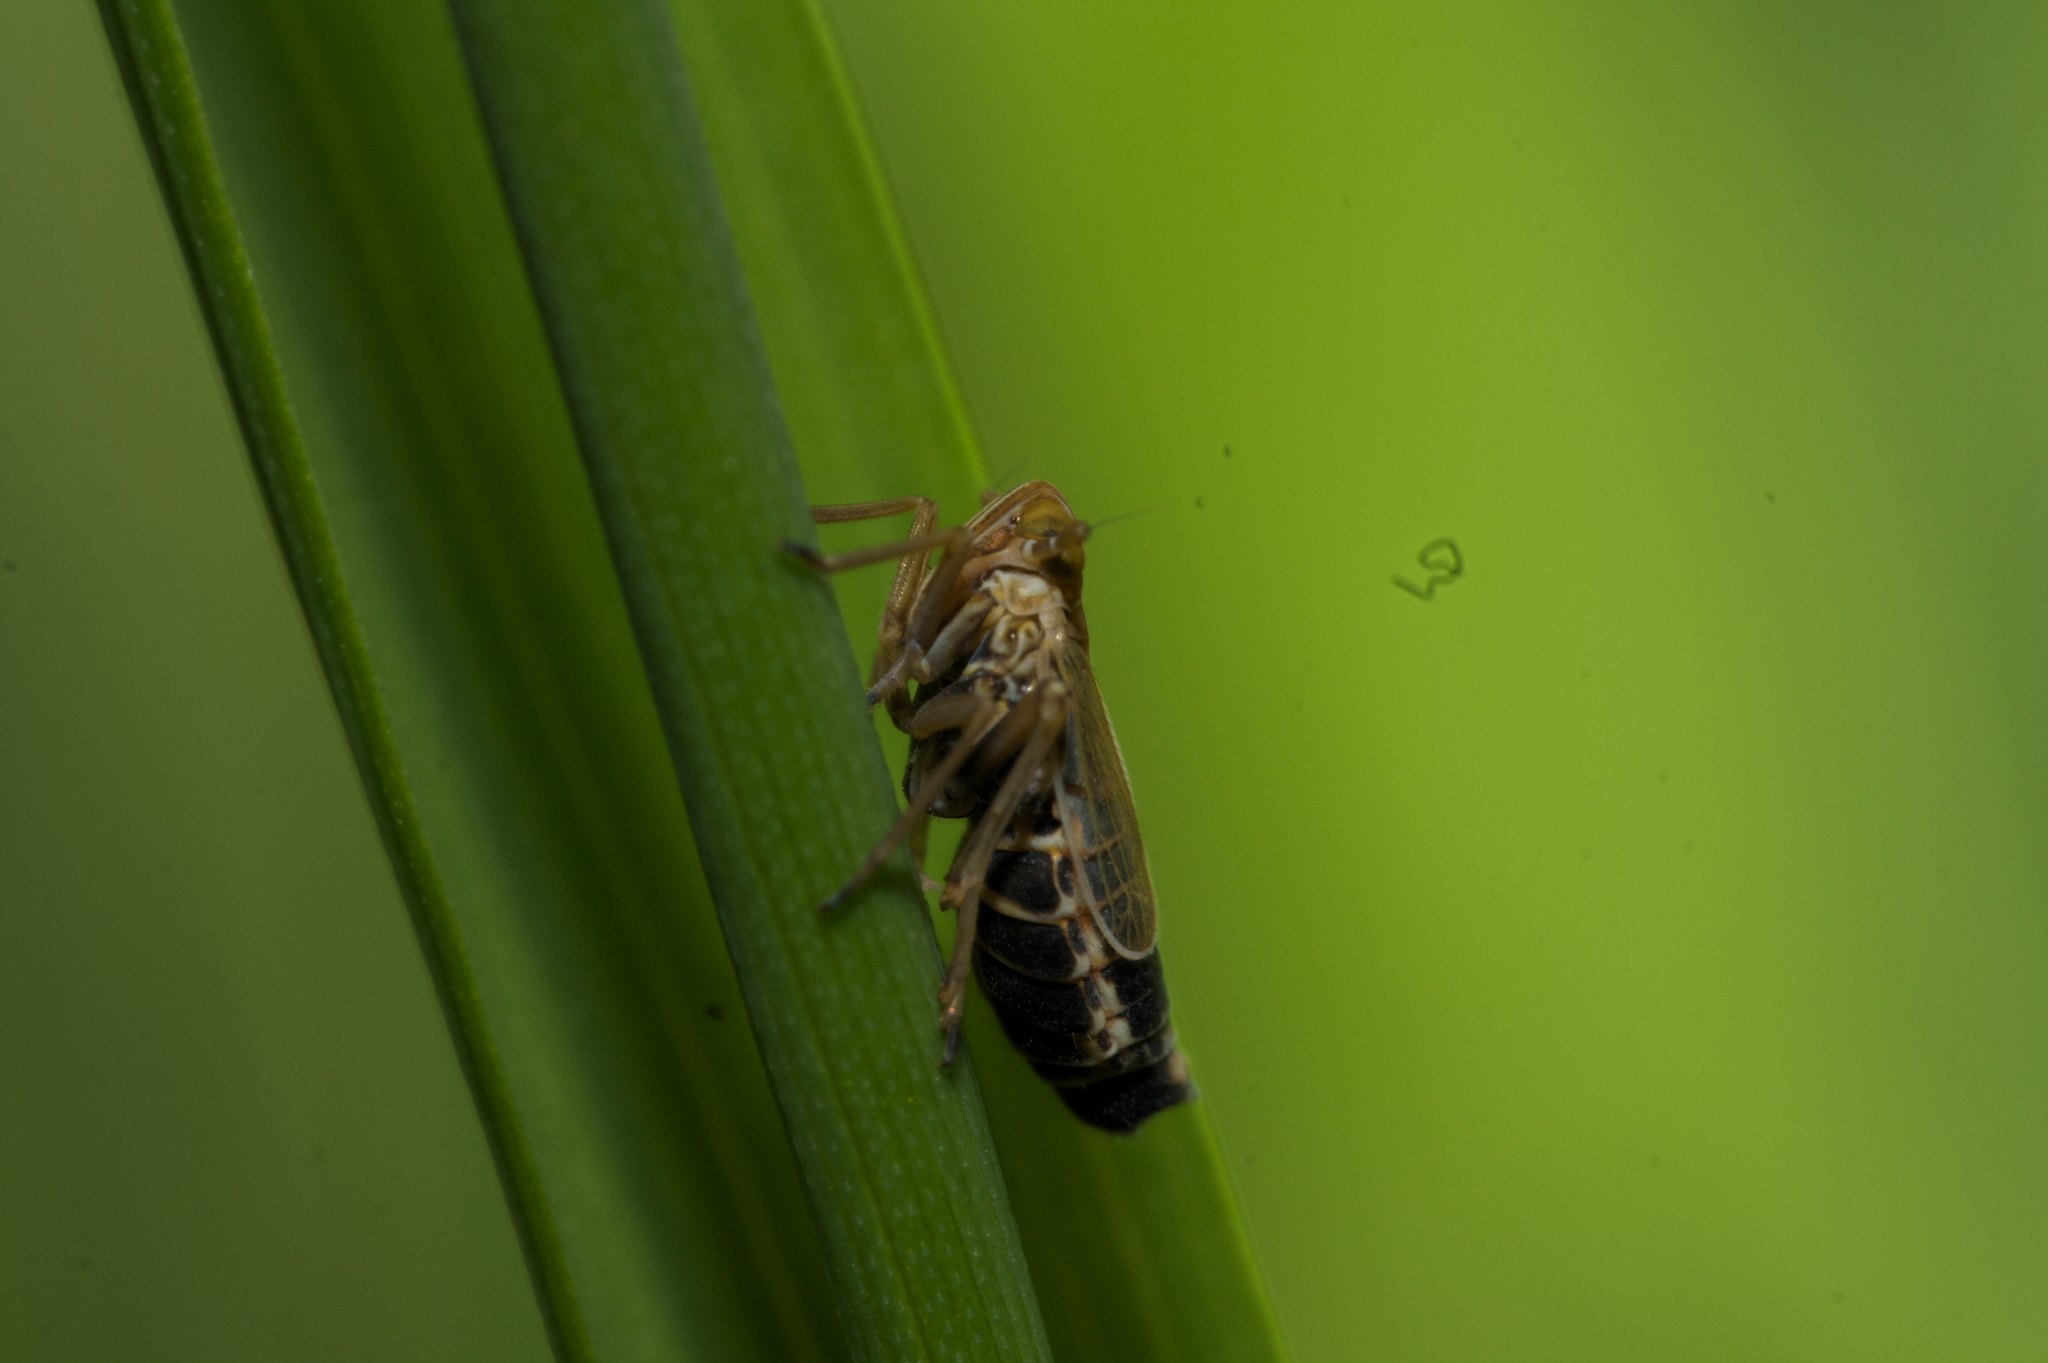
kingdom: Animalia
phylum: Arthropoda
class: Insecta
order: Hemiptera
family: Delphacidae
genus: Megadelphax
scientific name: Megadelphax sordidula
